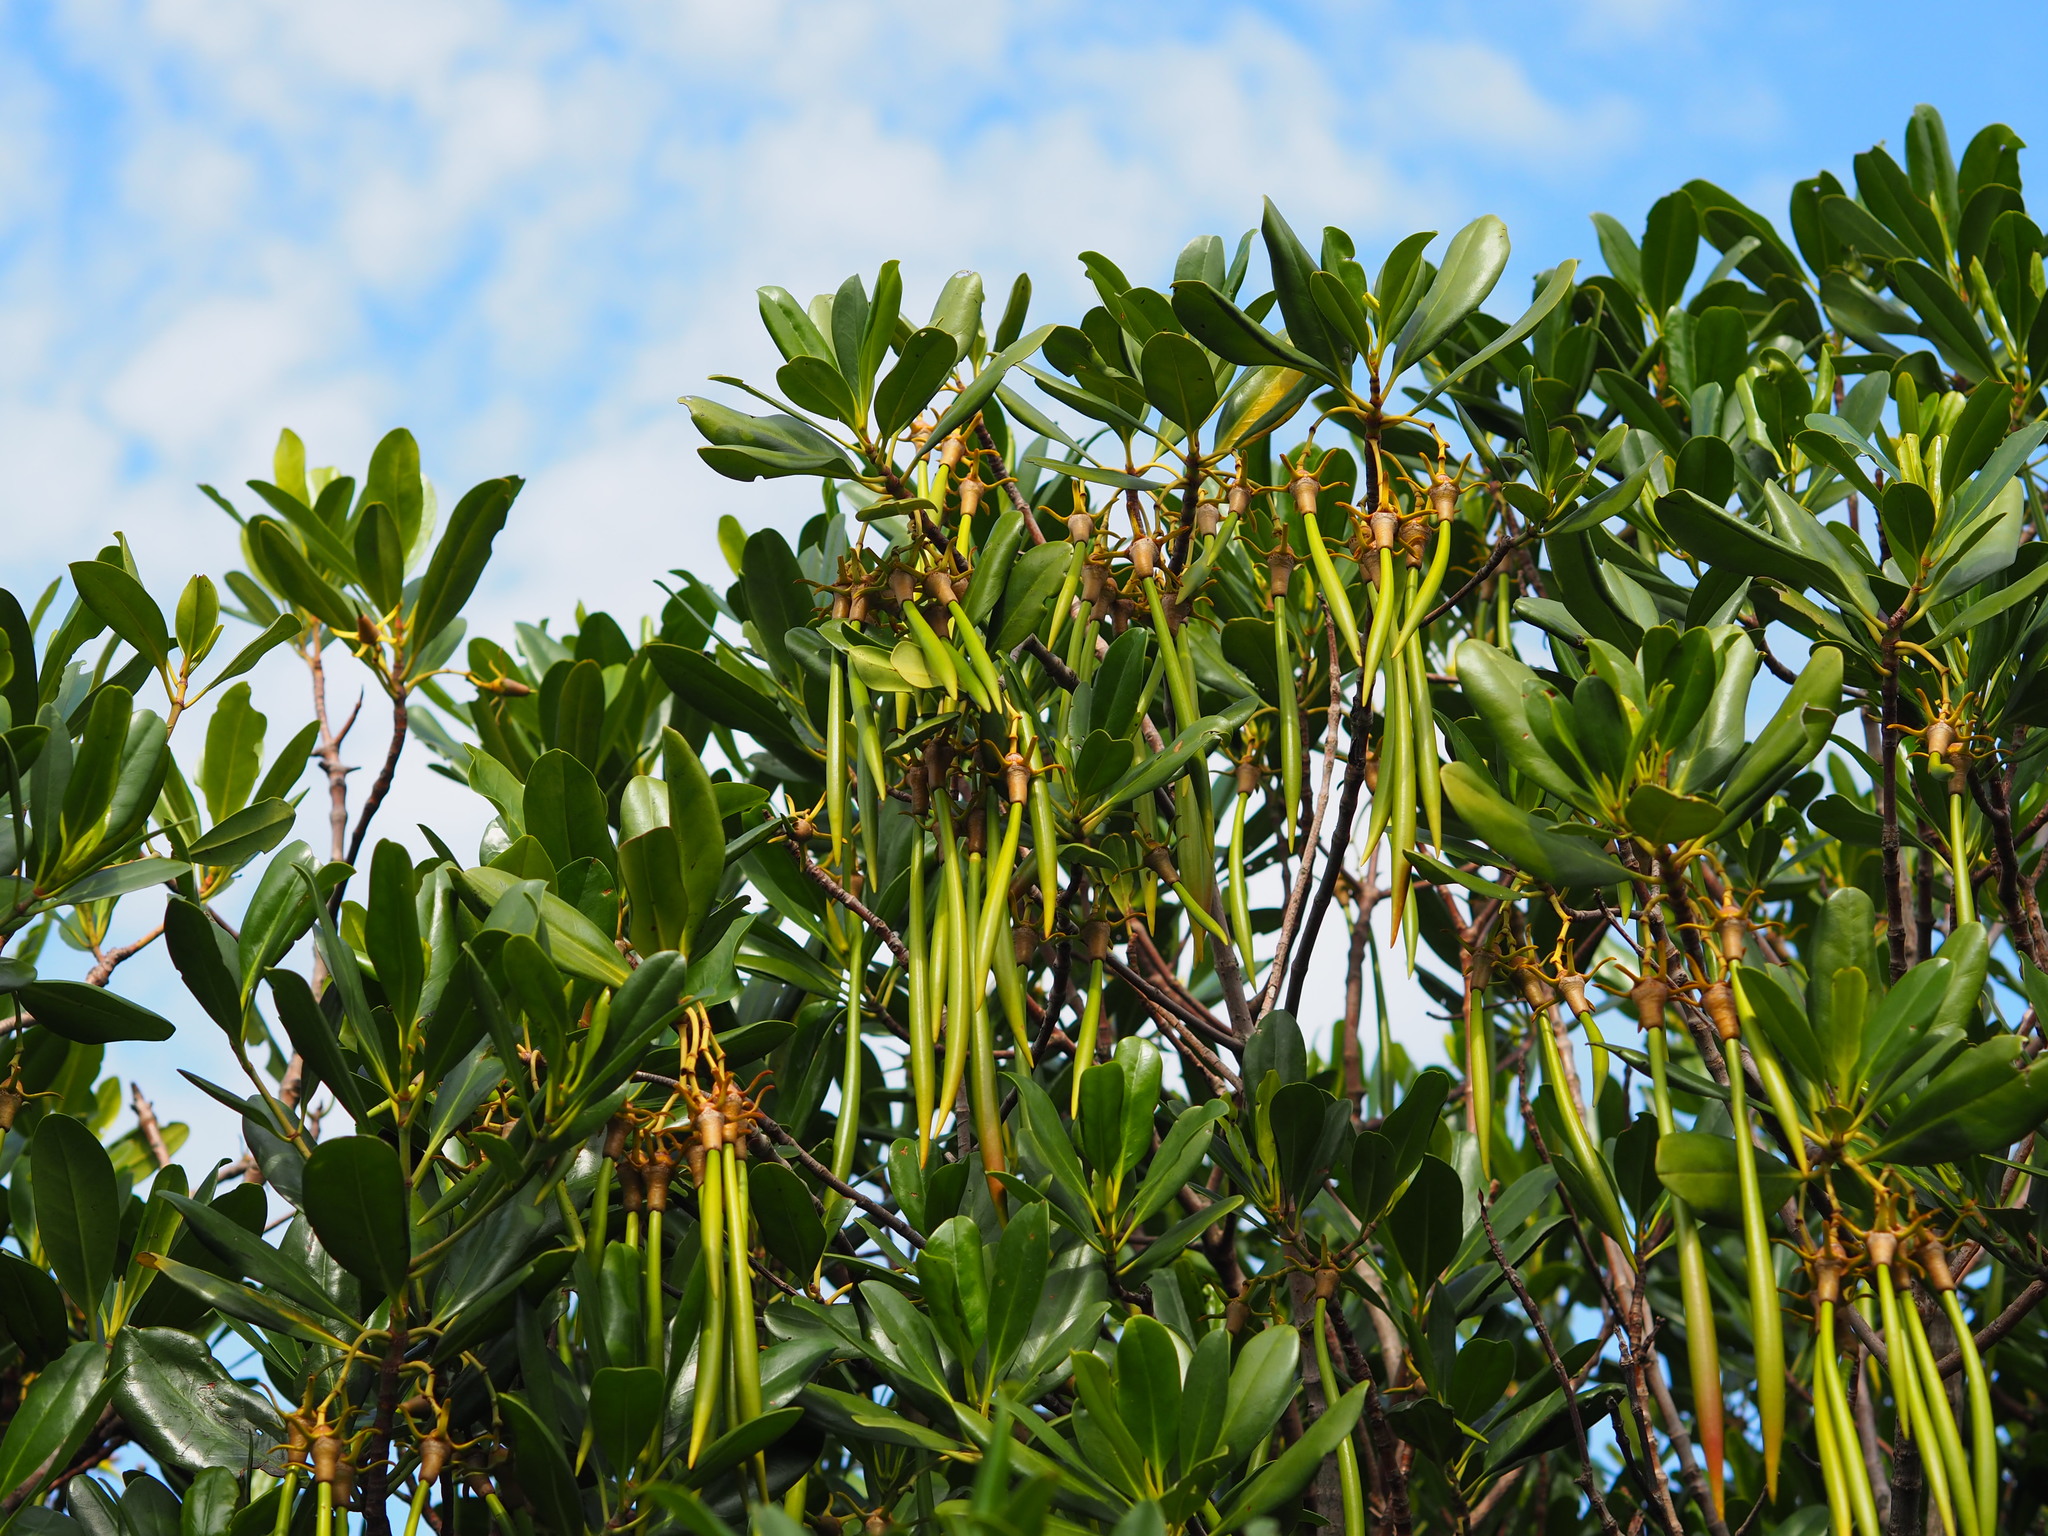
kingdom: Plantae
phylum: Tracheophyta
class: Magnoliopsida
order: Malpighiales
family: Rhizophoraceae
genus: Kandelia
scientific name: Kandelia obovata
